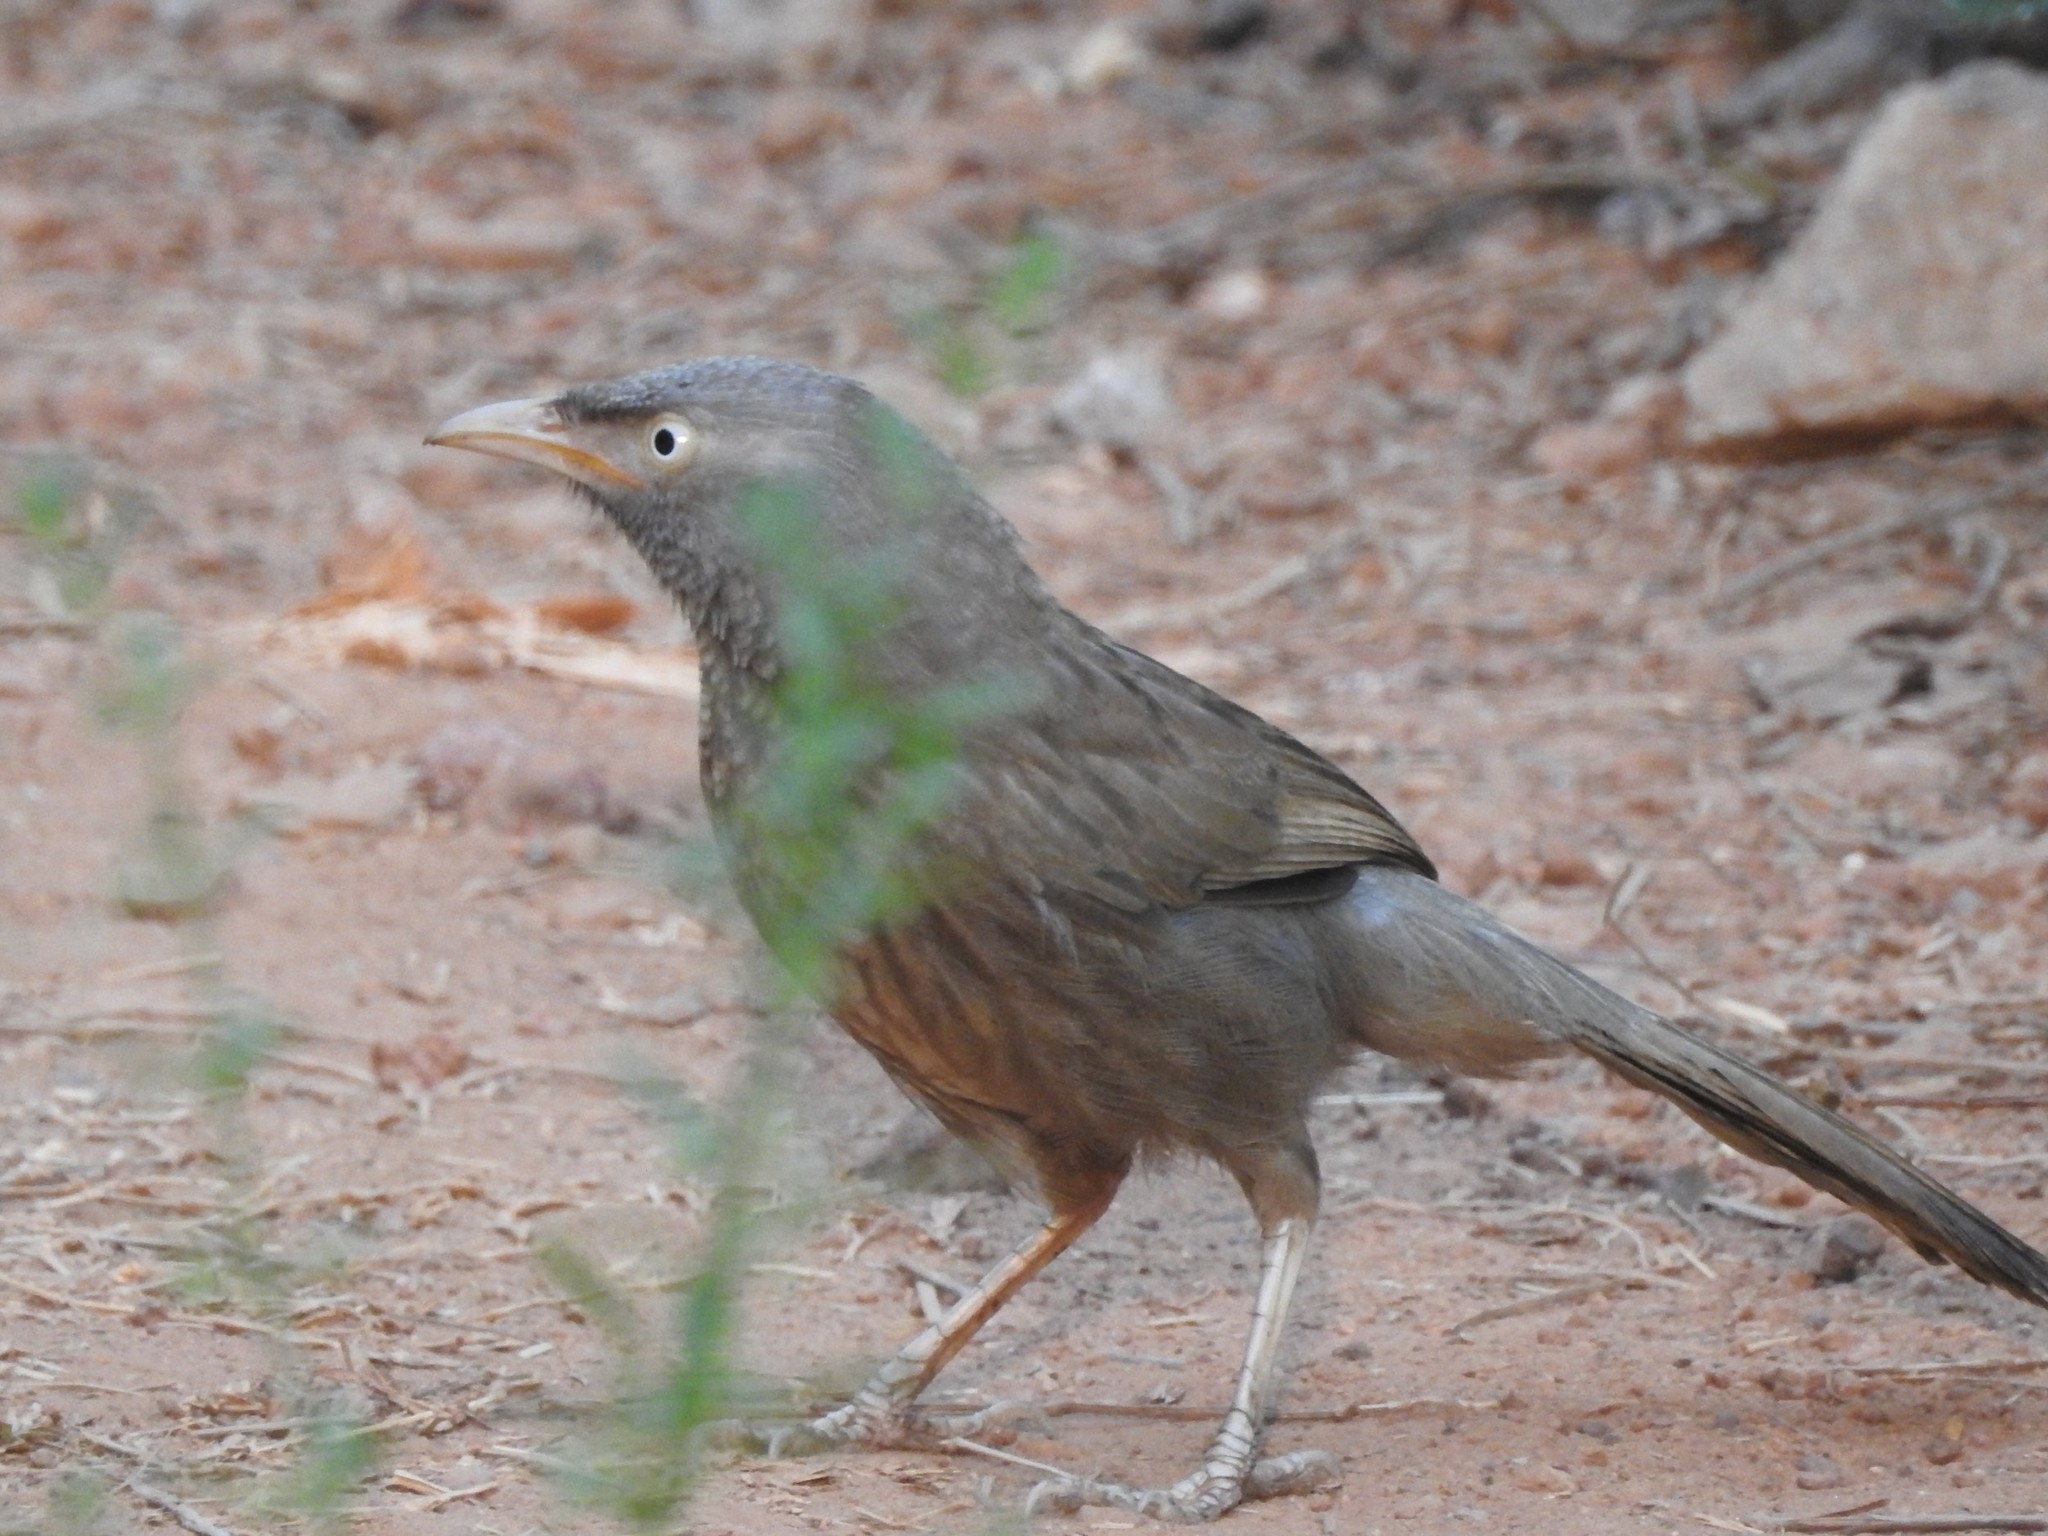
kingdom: Animalia
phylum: Chordata
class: Aves
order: Passeriformes
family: Leiothrichidae
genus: Turdoides
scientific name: Turdoides striata
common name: Jungle babbler
